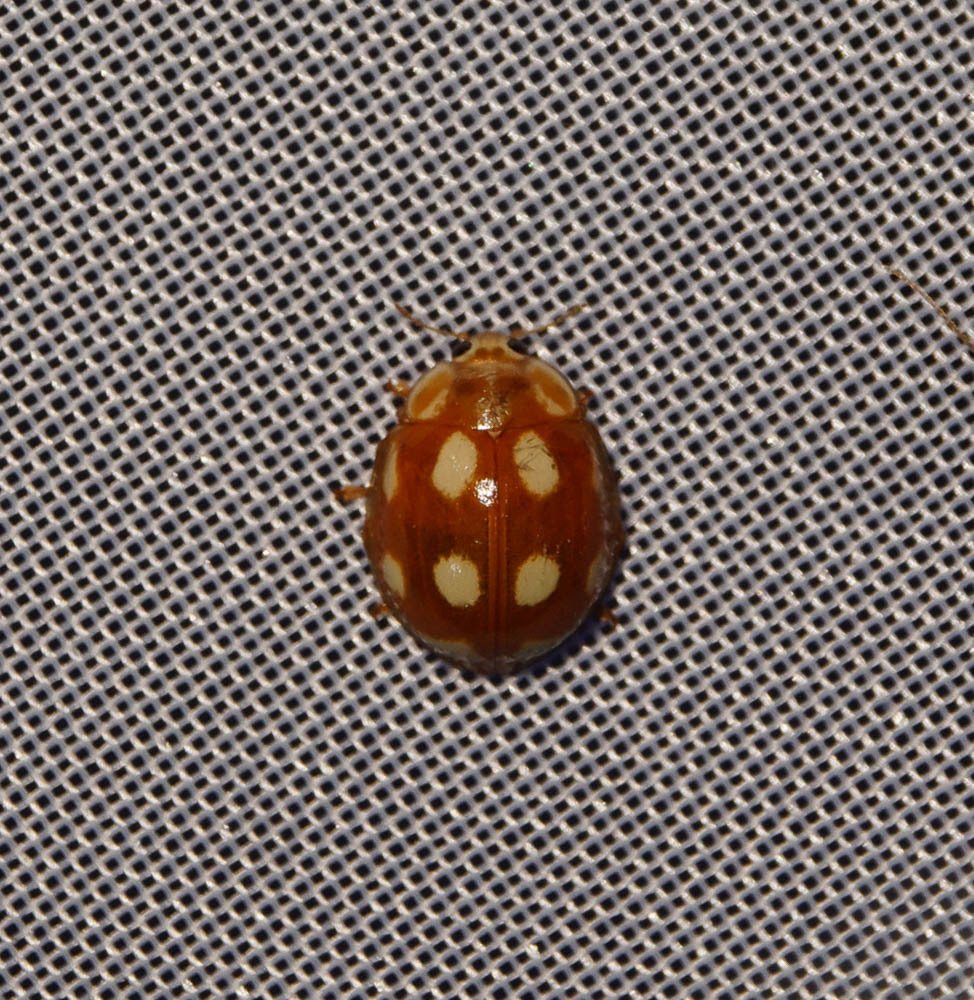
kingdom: Animalia
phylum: Arthropoda
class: Insecta
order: Coleoptera
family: Coccinellidae
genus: Calvia
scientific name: Calvia decemguttata
